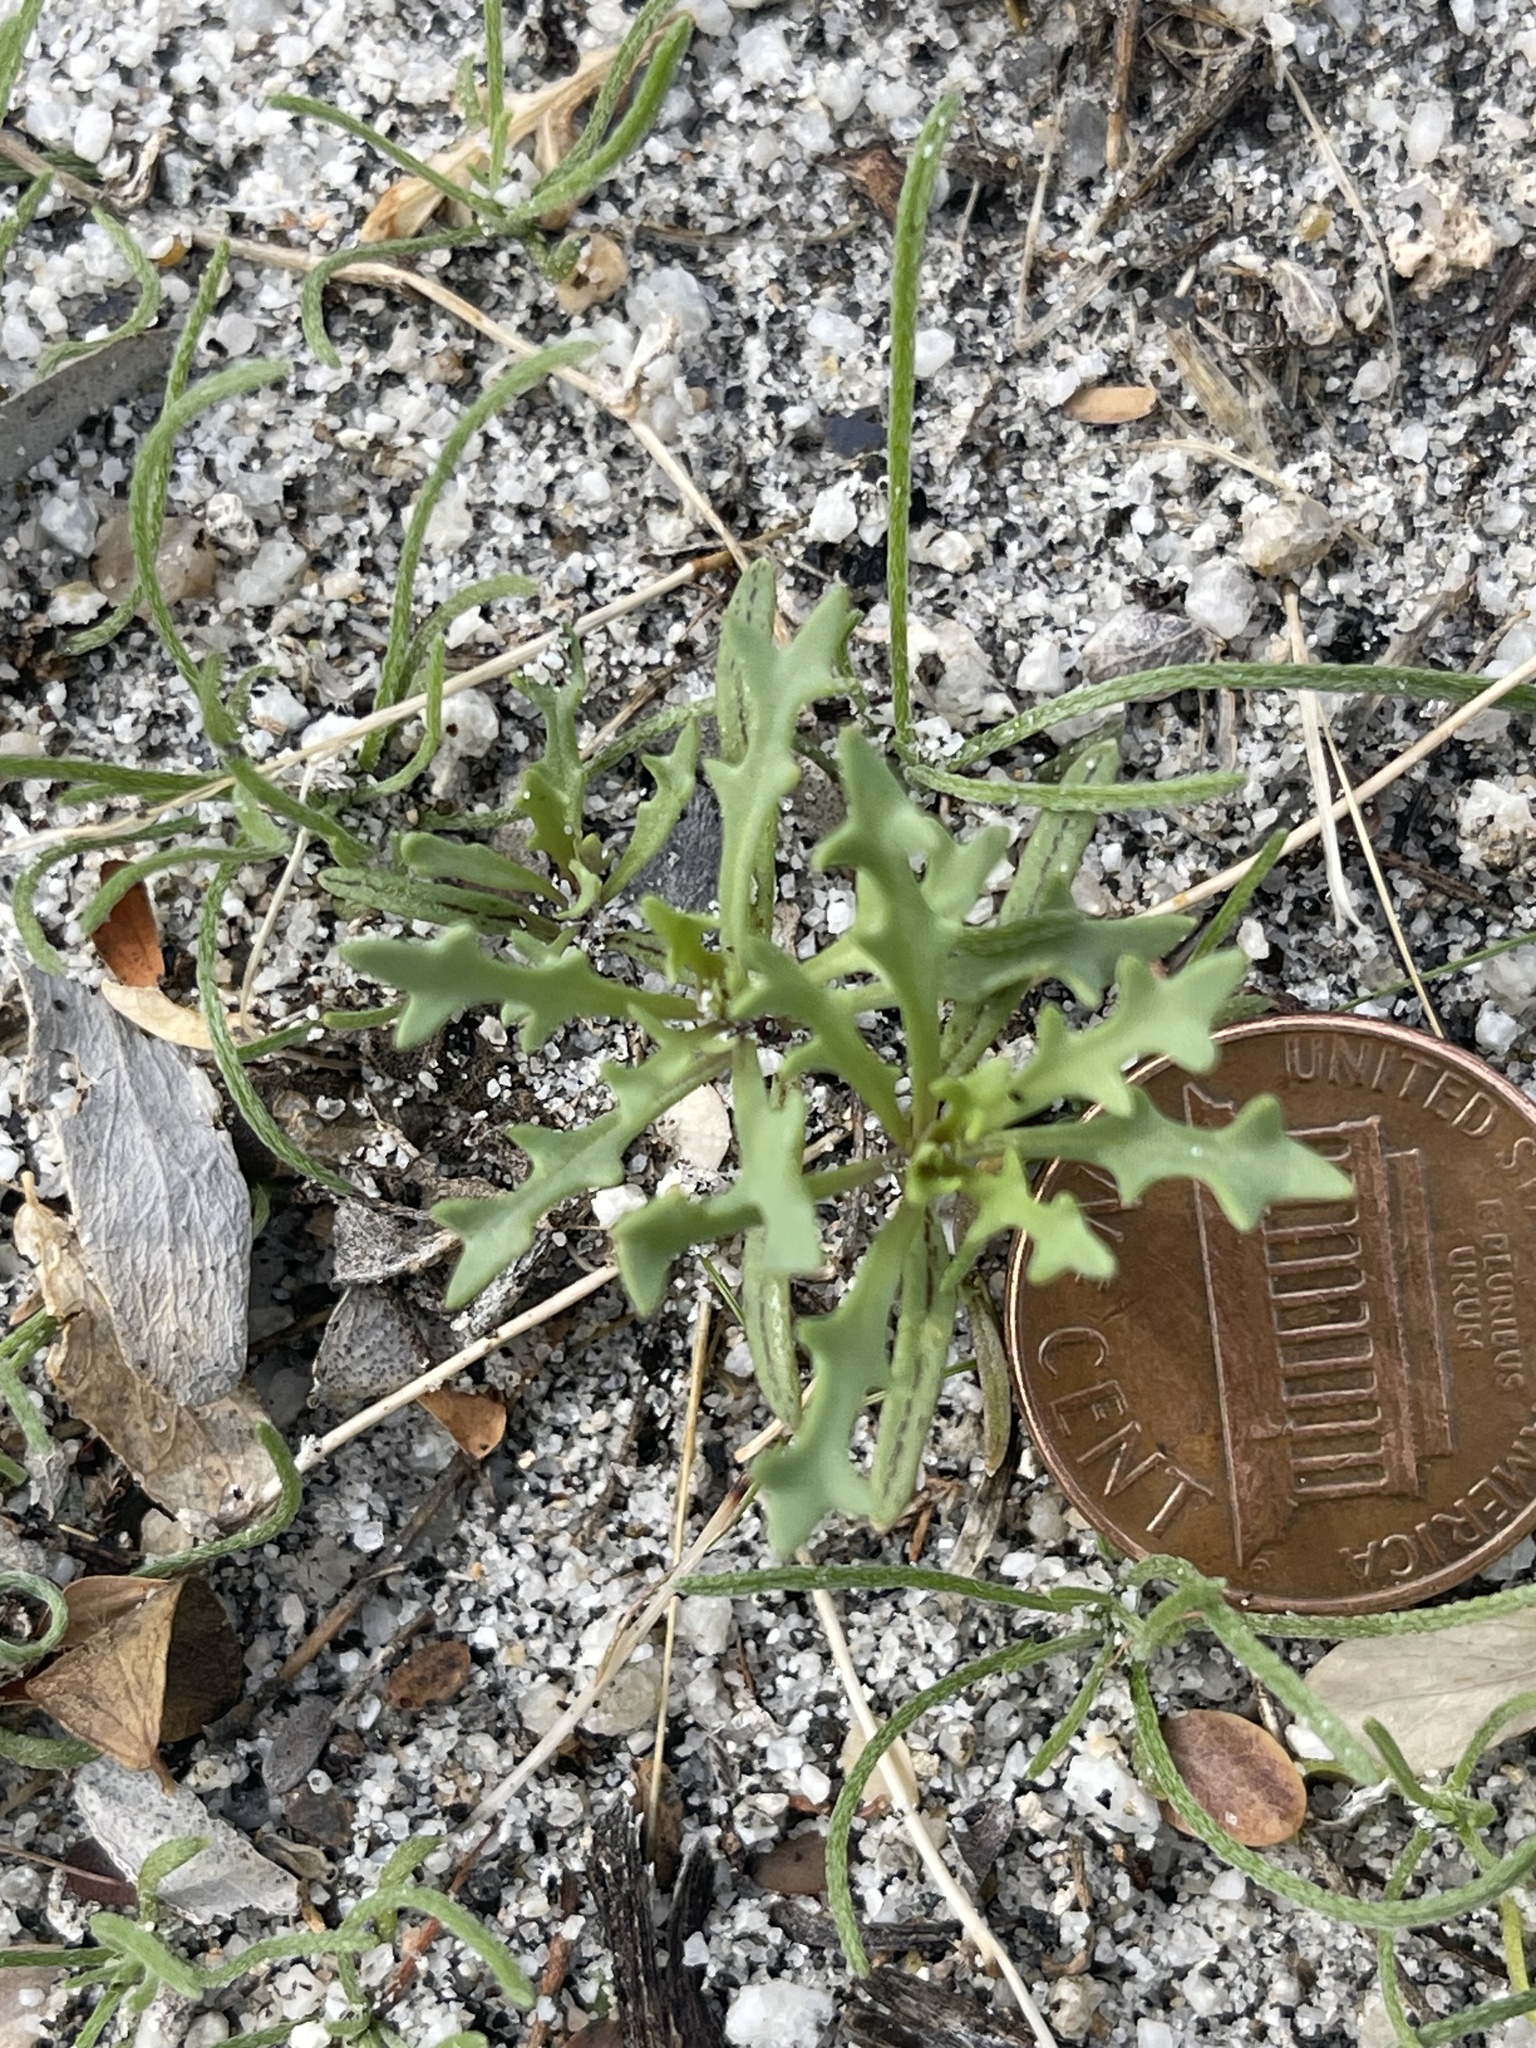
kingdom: Plantae
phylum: Tracheophyta
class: Magnoliopsida
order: Brassicales
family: Brassicaceae
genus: Streptanthus
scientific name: Streptanthus longirostris
